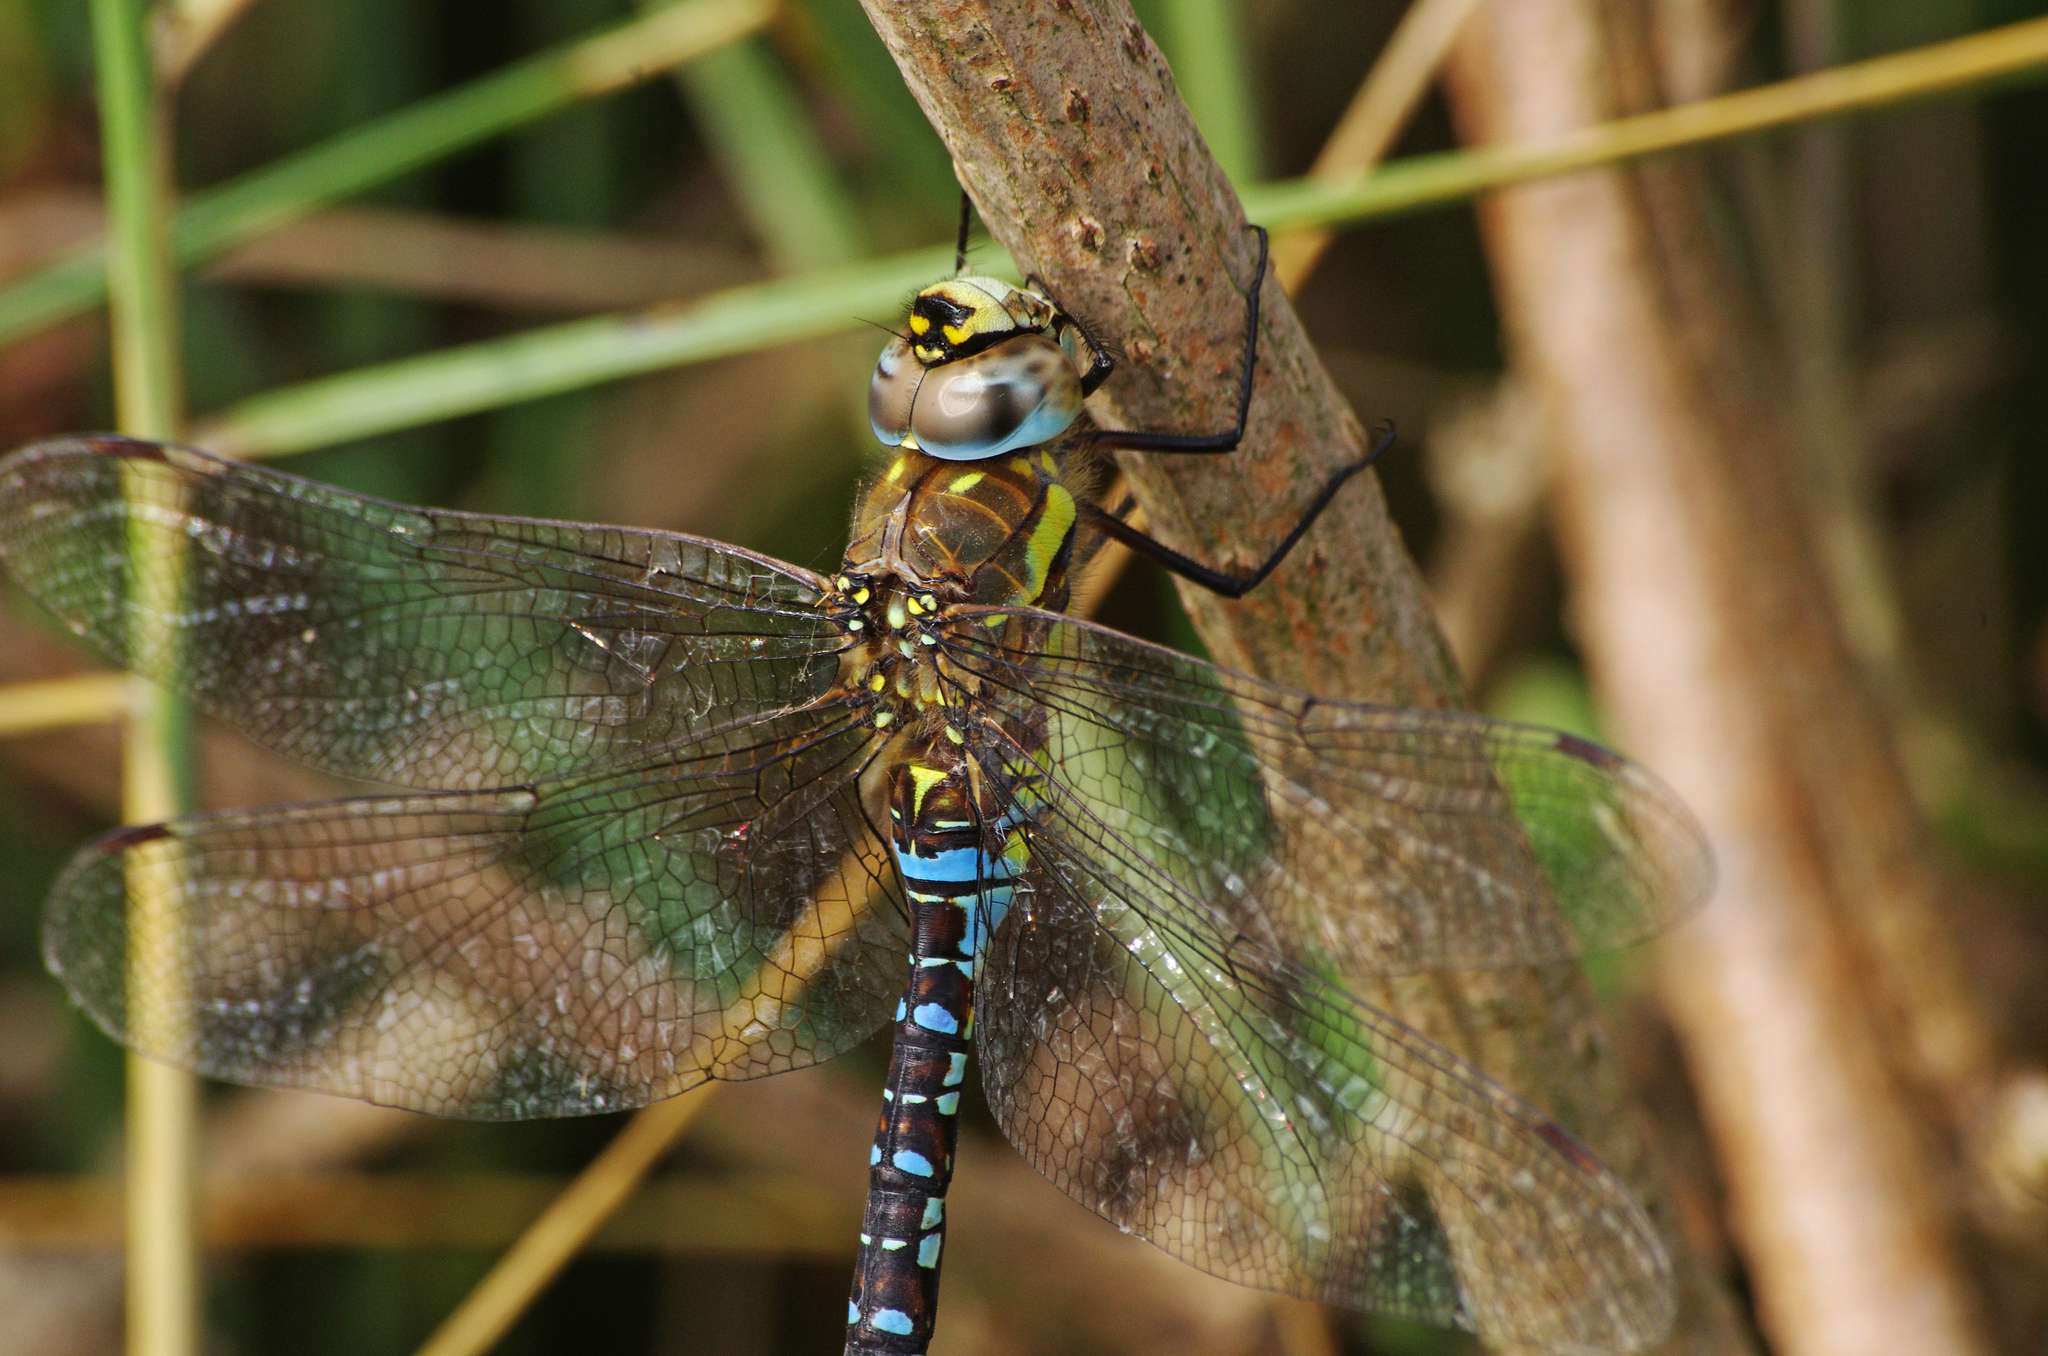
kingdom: Animalia
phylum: Arthropoda
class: Insecta
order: Odonata
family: Aeshnidae
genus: Aeshna
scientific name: Aeshna mixta
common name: Migrant hawker
